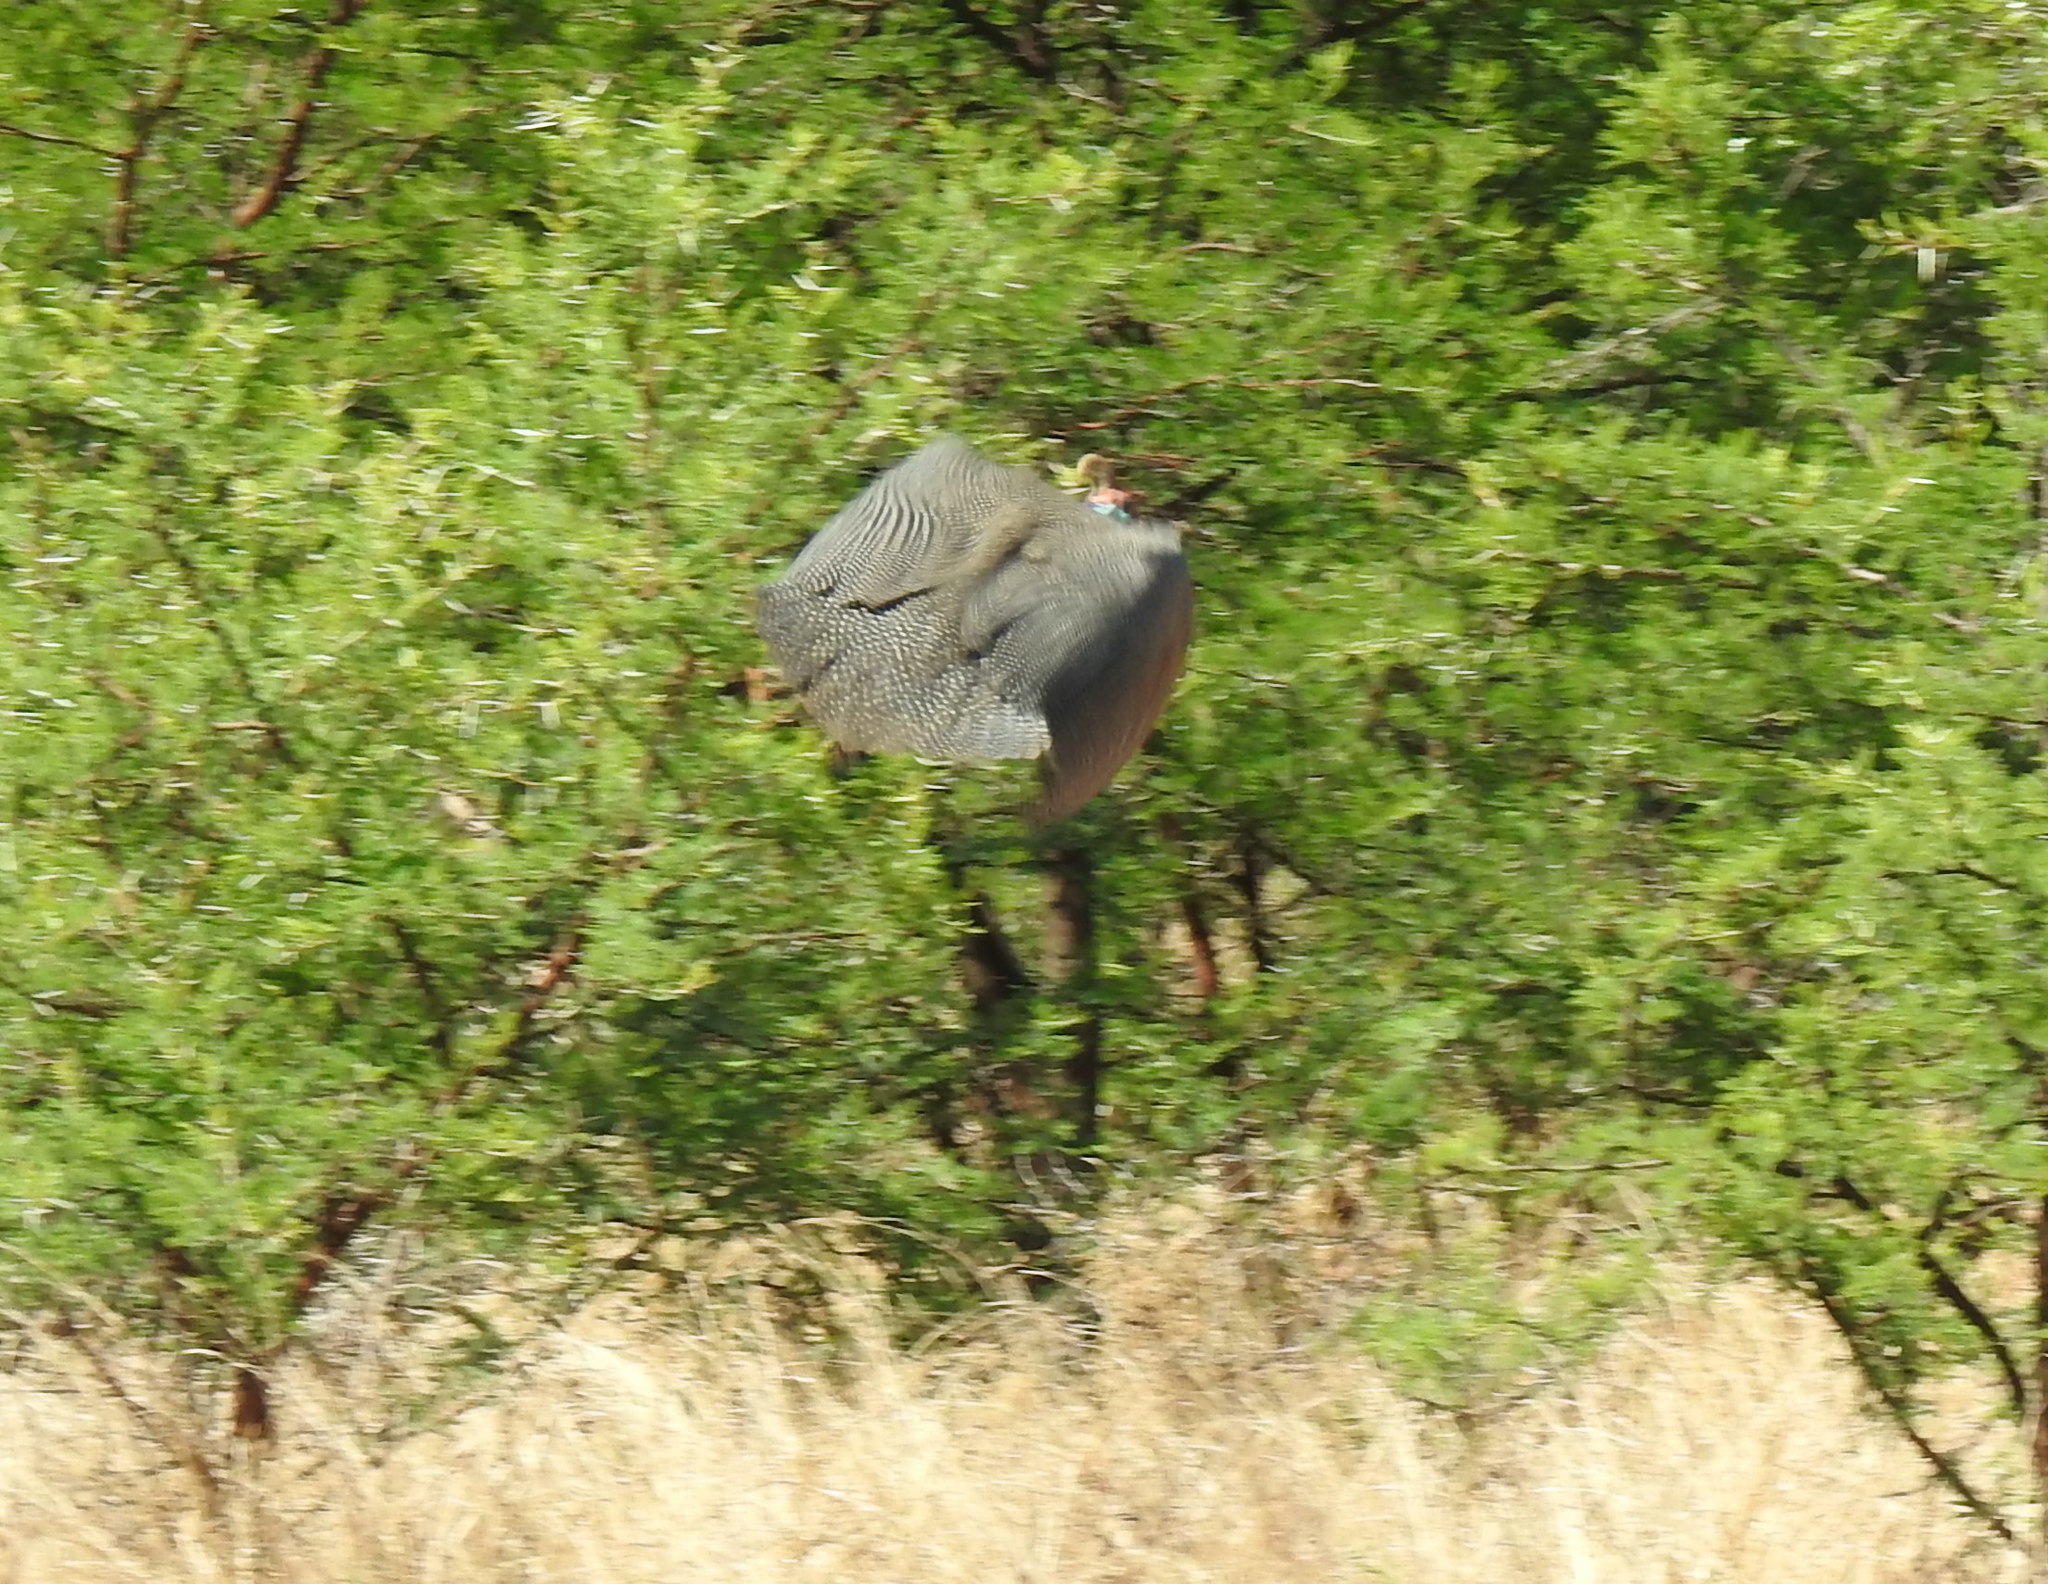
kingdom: Animalia
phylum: Chordata
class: Aves
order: Galliformes
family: Numididae
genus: Numida
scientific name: Numida meleagris
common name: Helmeted guineafowl
